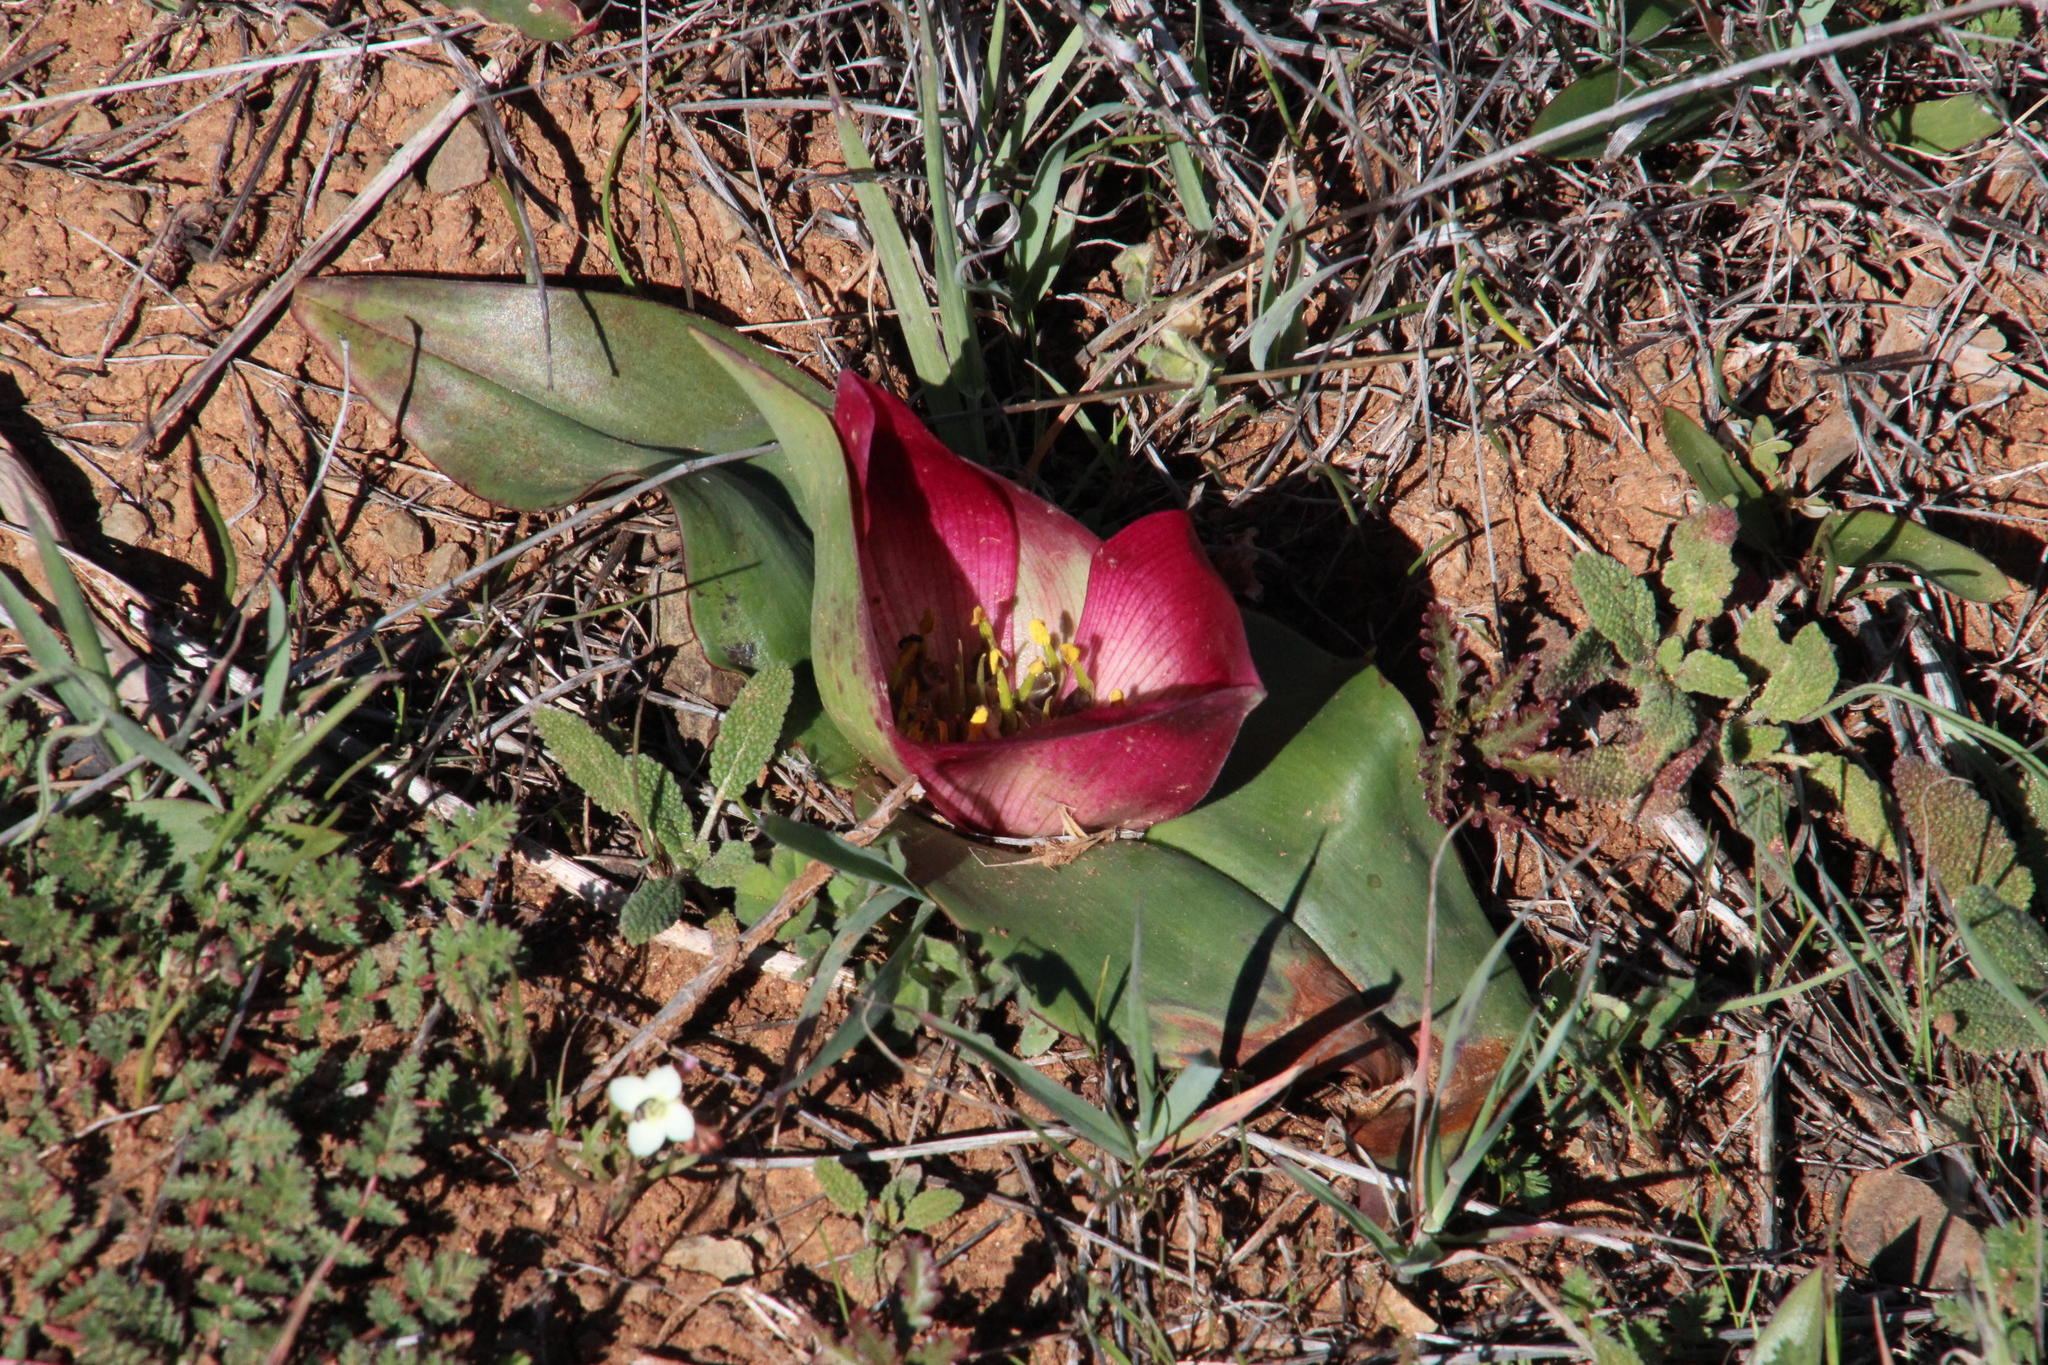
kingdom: Plantae
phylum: Tracheophyta
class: Liliopsida
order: Liliales
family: Colchicaceae
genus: Colchicum
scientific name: Colchicum burchellii
